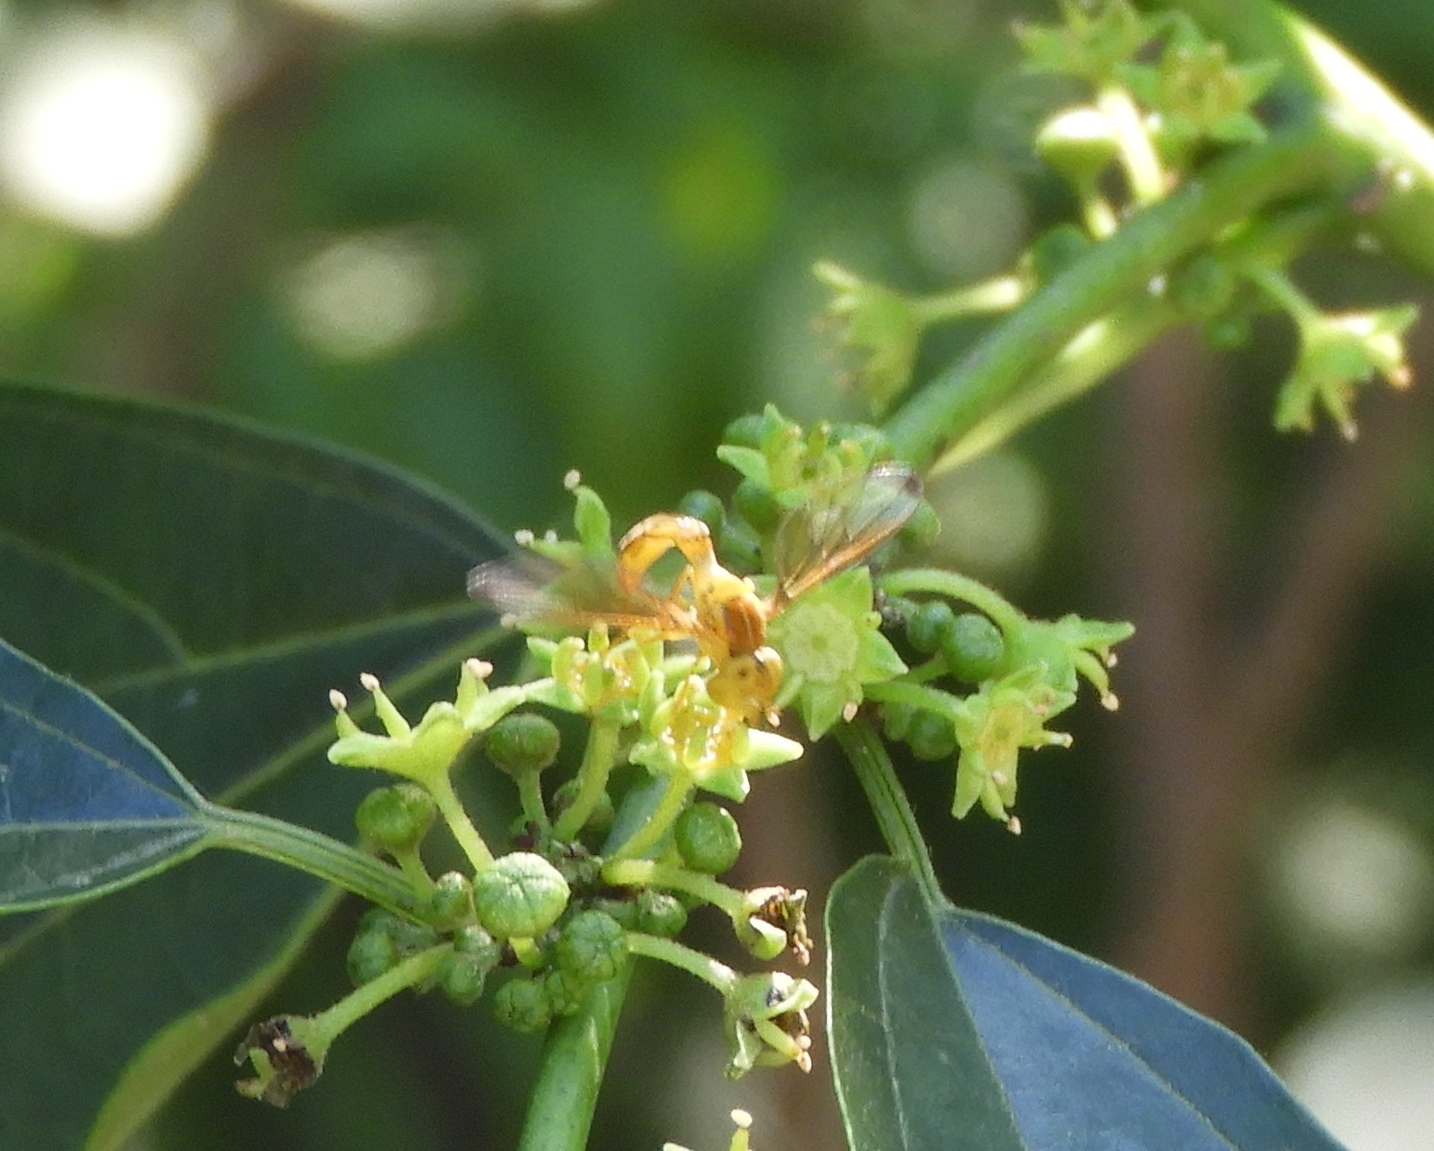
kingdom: Animalia
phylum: Arthropoda
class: Insecta
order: Diptera
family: Syrphidae
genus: Hybobathus
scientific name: Hybobathus
